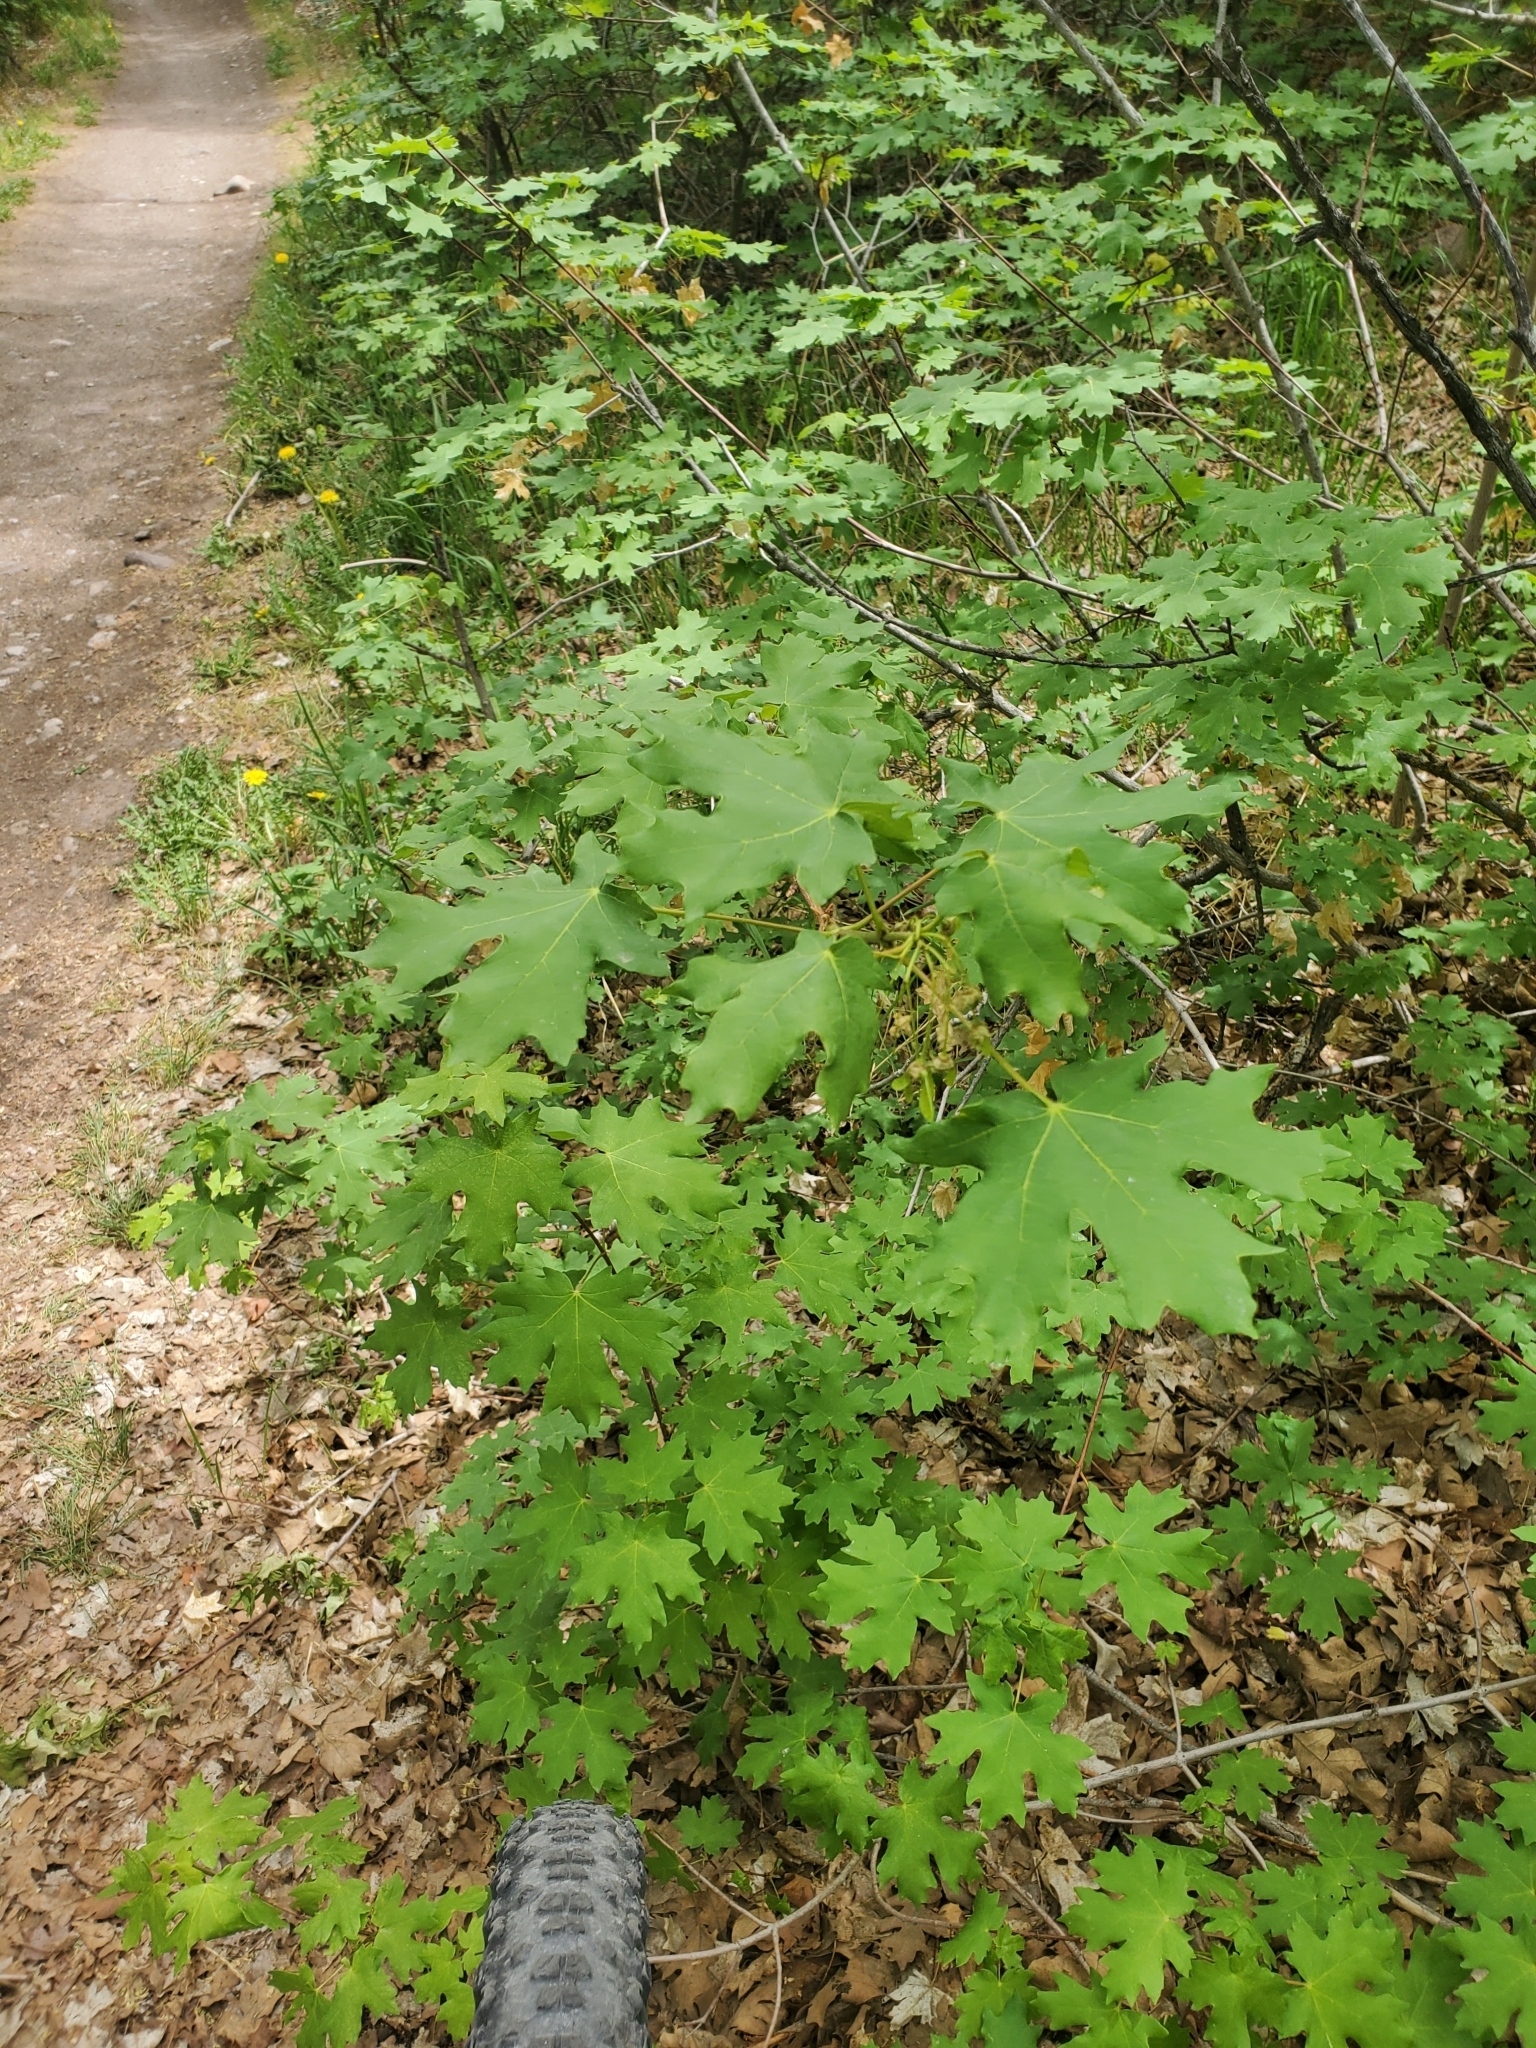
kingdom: Plantae
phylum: Tracheophyta
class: Magnoliopsida
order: Sapindales
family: Sapindaceae
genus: Acer
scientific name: Acer grandidentatum
